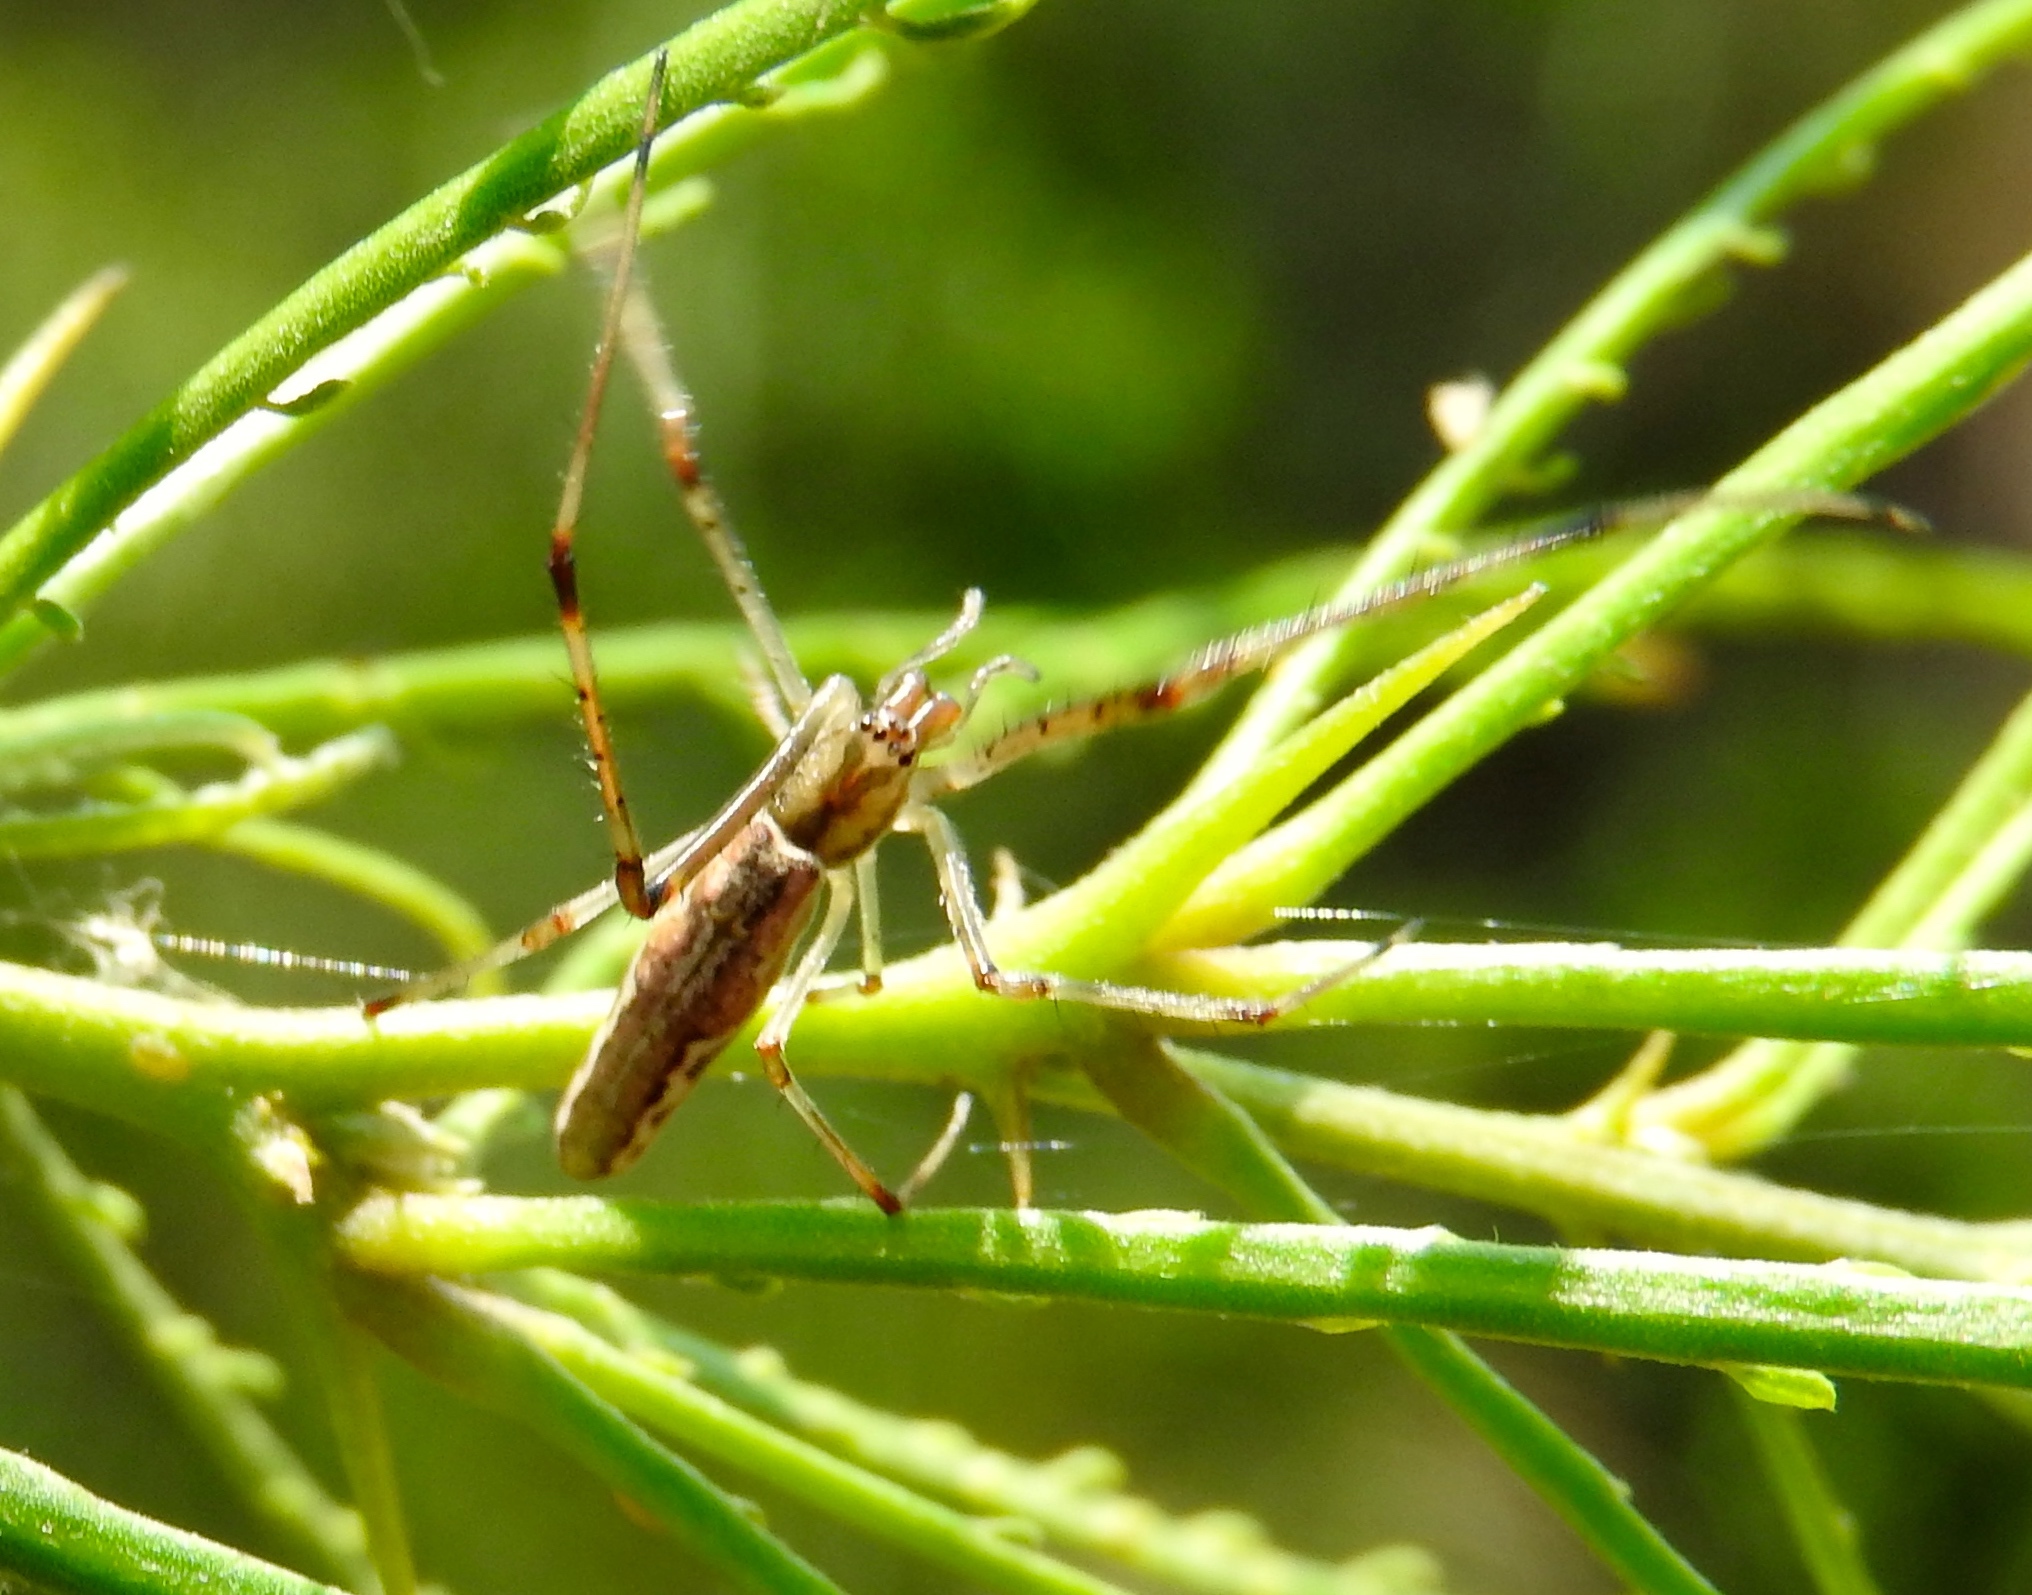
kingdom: Animalia
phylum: Arthropoda
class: Arachnida
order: Araneae
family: Tetragnathidae
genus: Tetragnatha
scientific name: Tetragnatha
